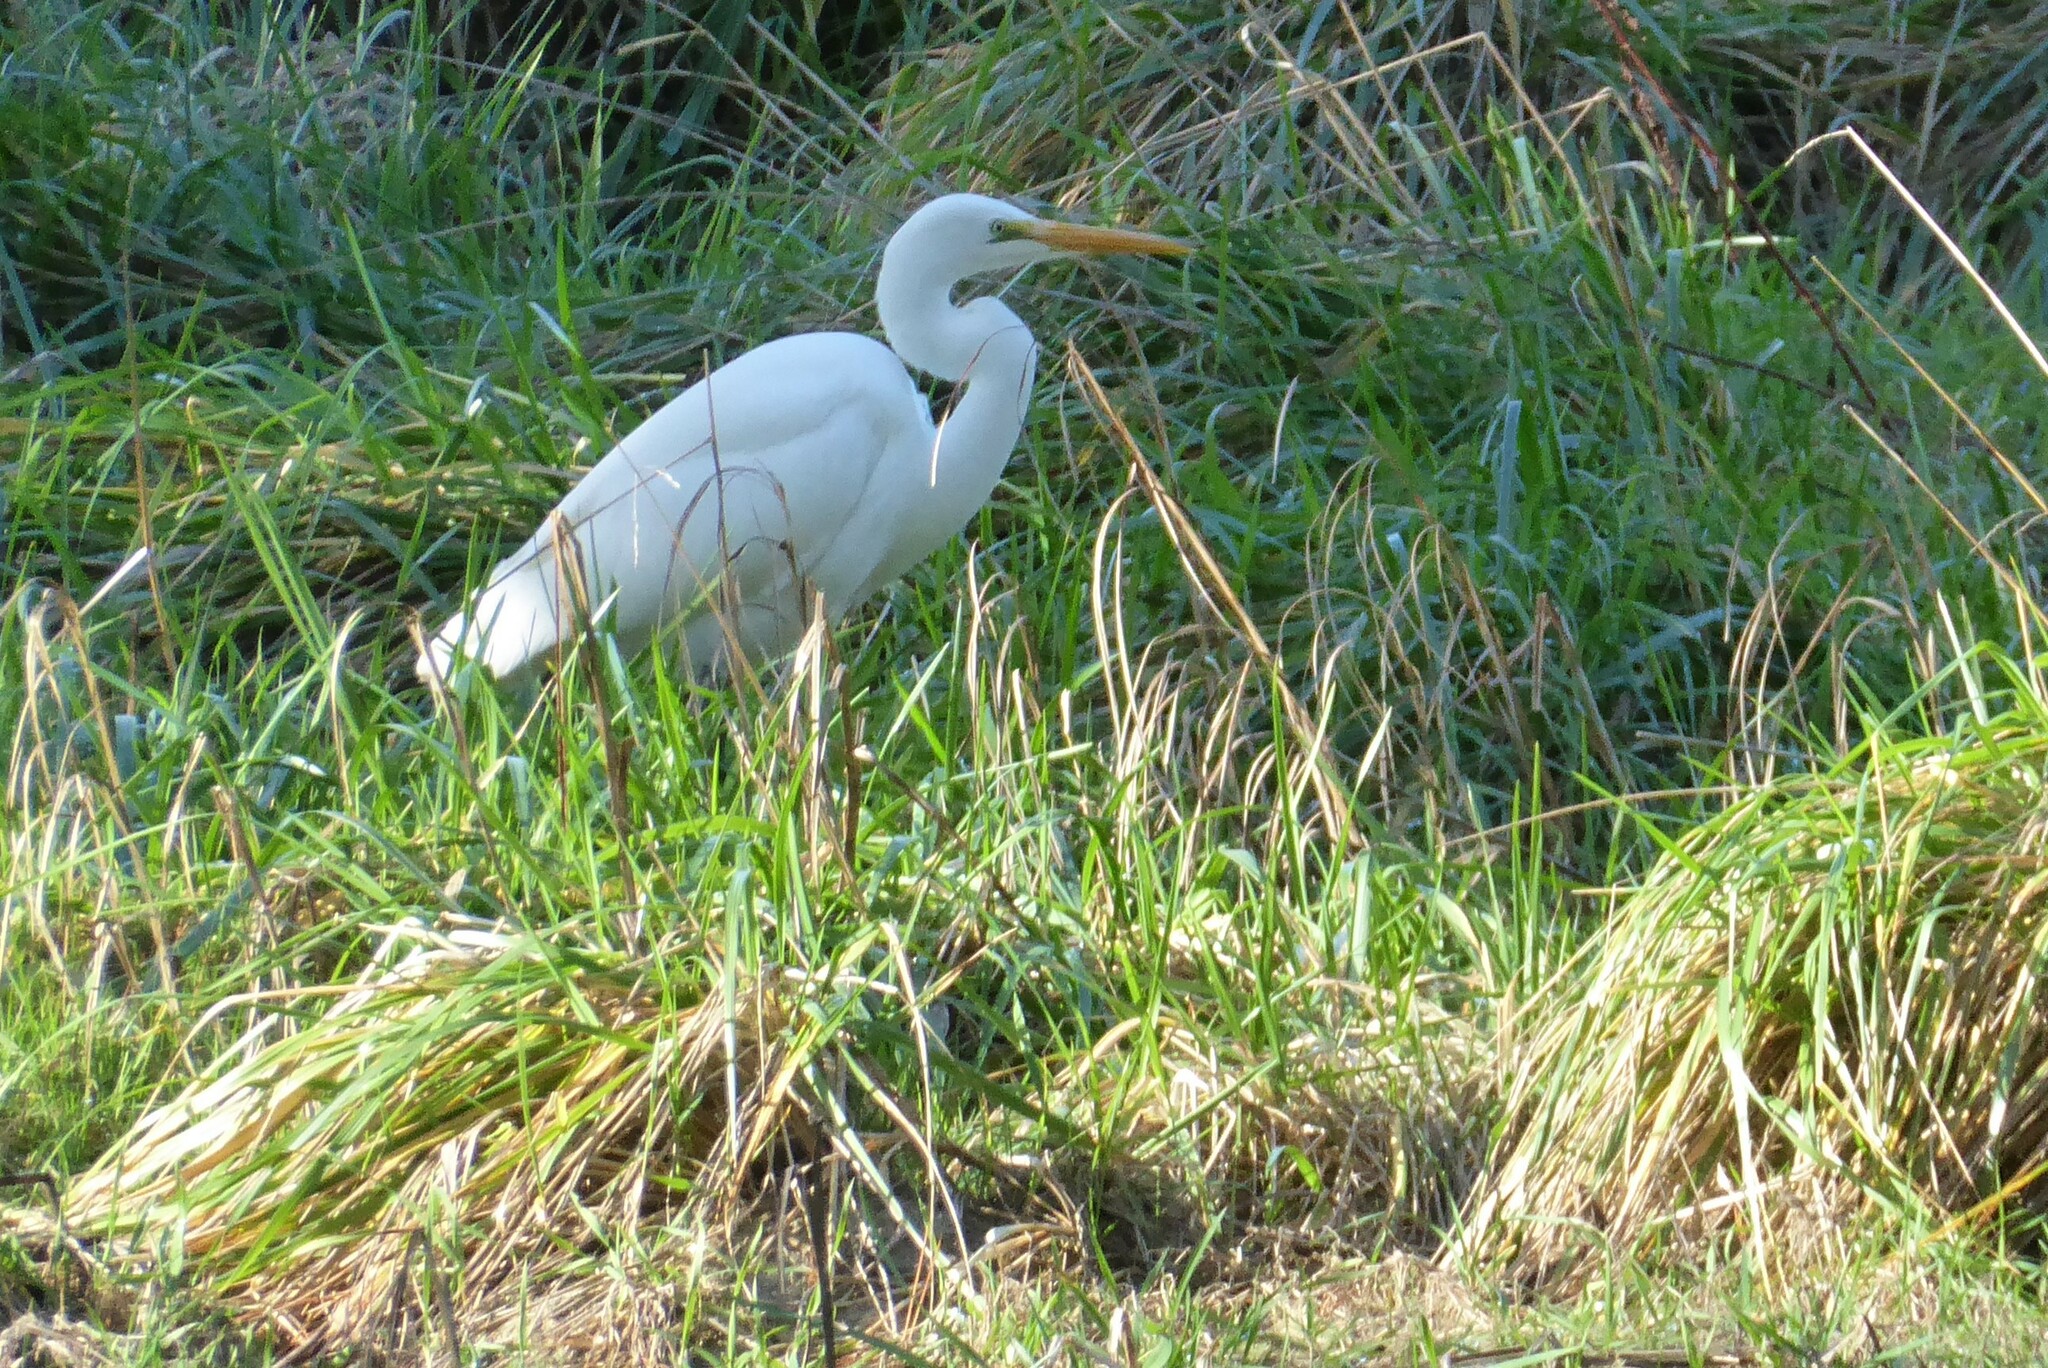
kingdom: Animalia
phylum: Chordata
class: Aves
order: Pelecaniformes
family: Ardeidae
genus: Ardea
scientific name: Ardea modesta
